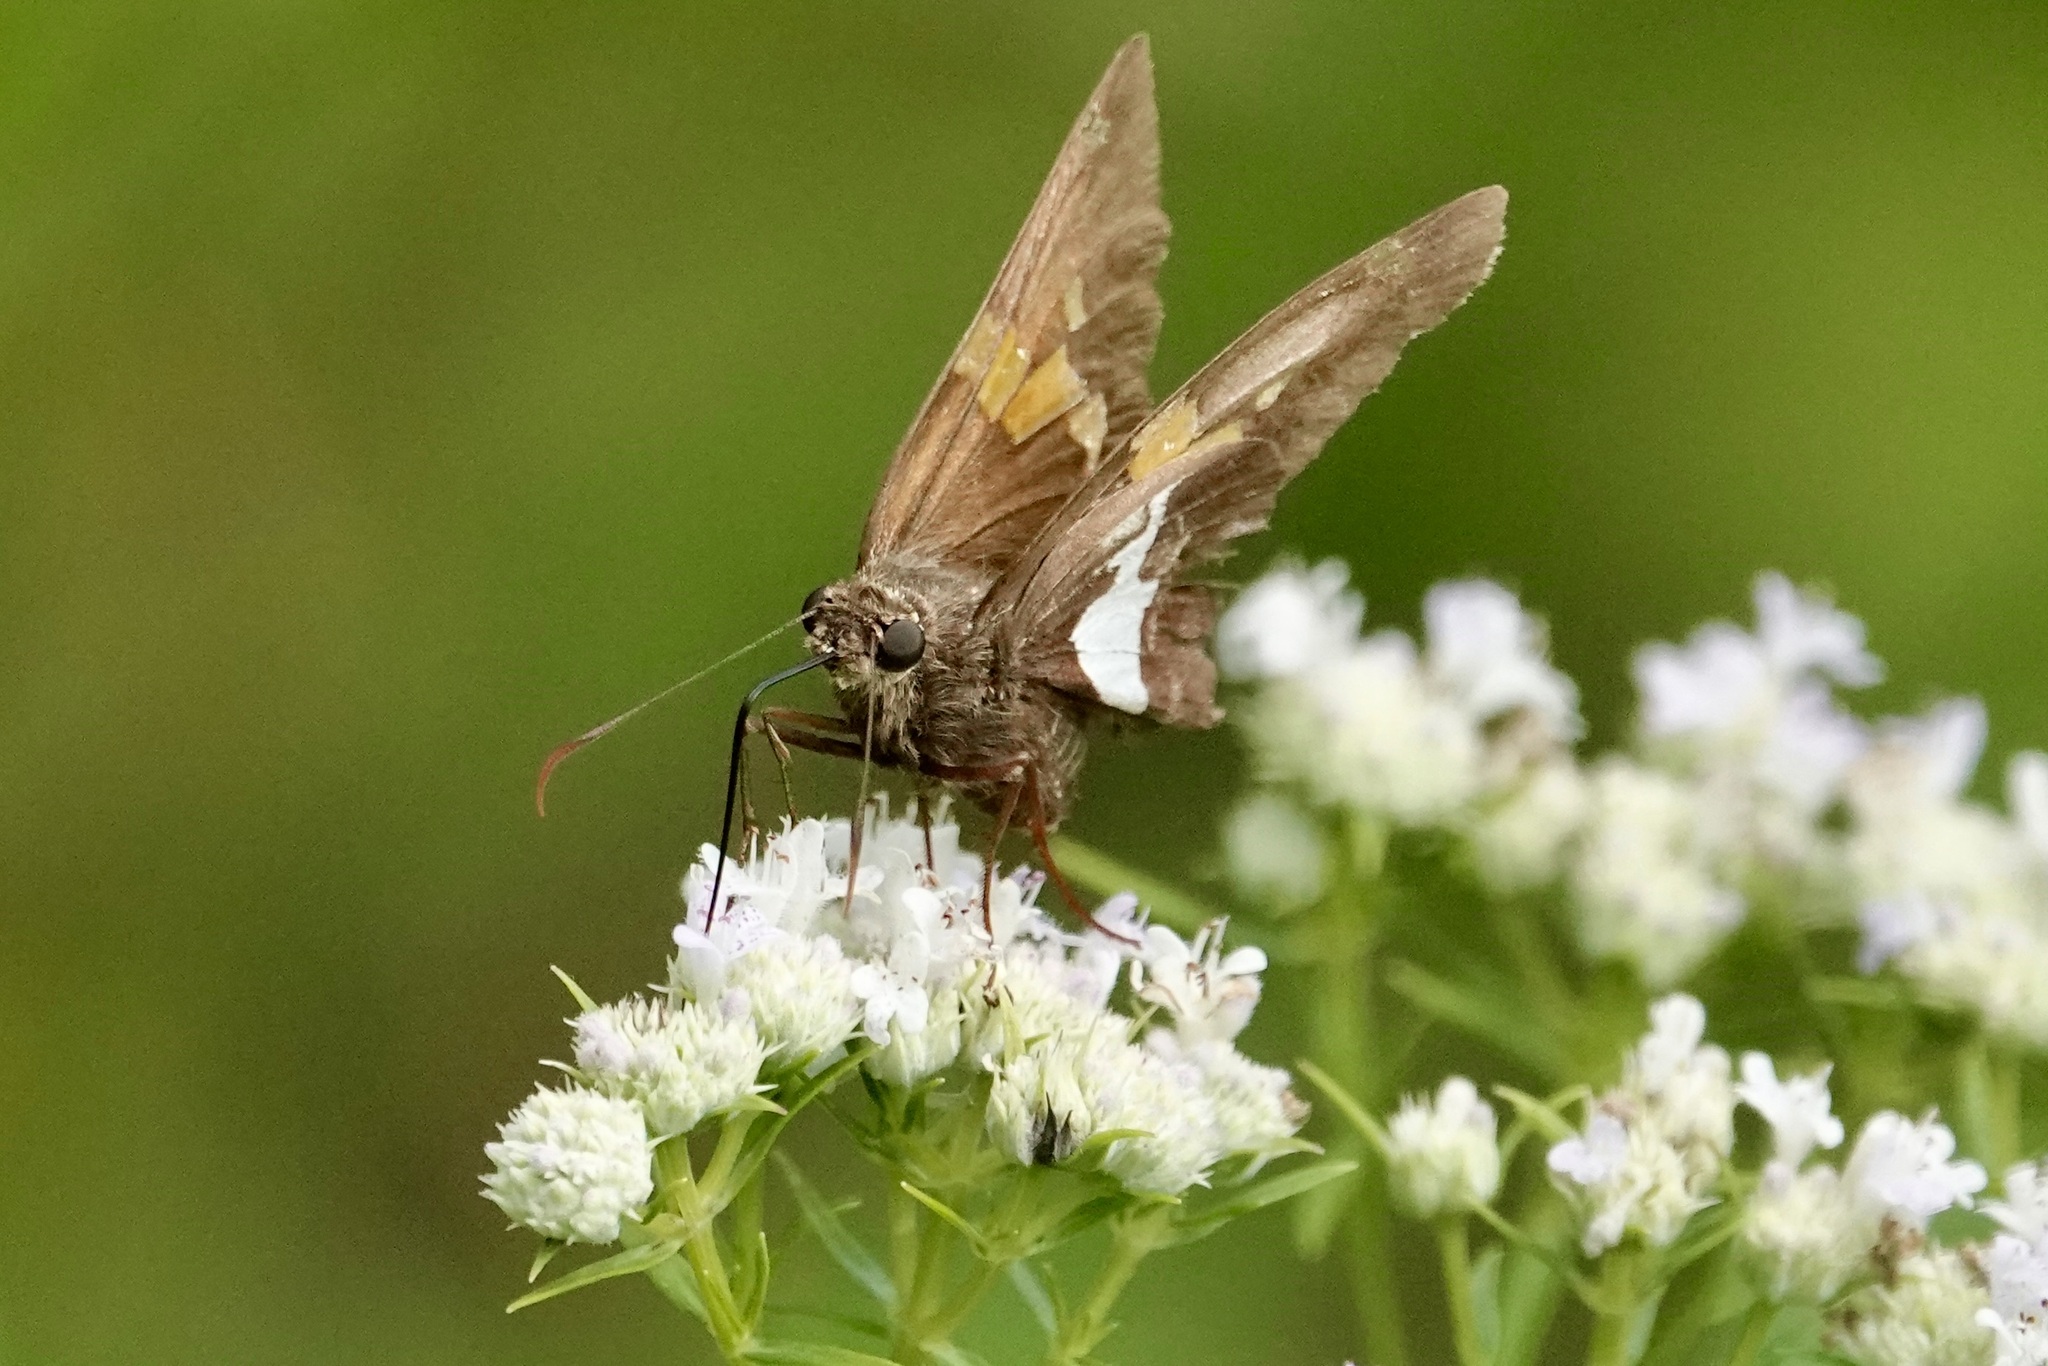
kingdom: Animalia
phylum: Arthropoda
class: Insecta
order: Lepidoptera
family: Hesperiidae
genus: Epargyreus
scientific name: Epargyreus clarus
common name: Silver-spotted skipper
